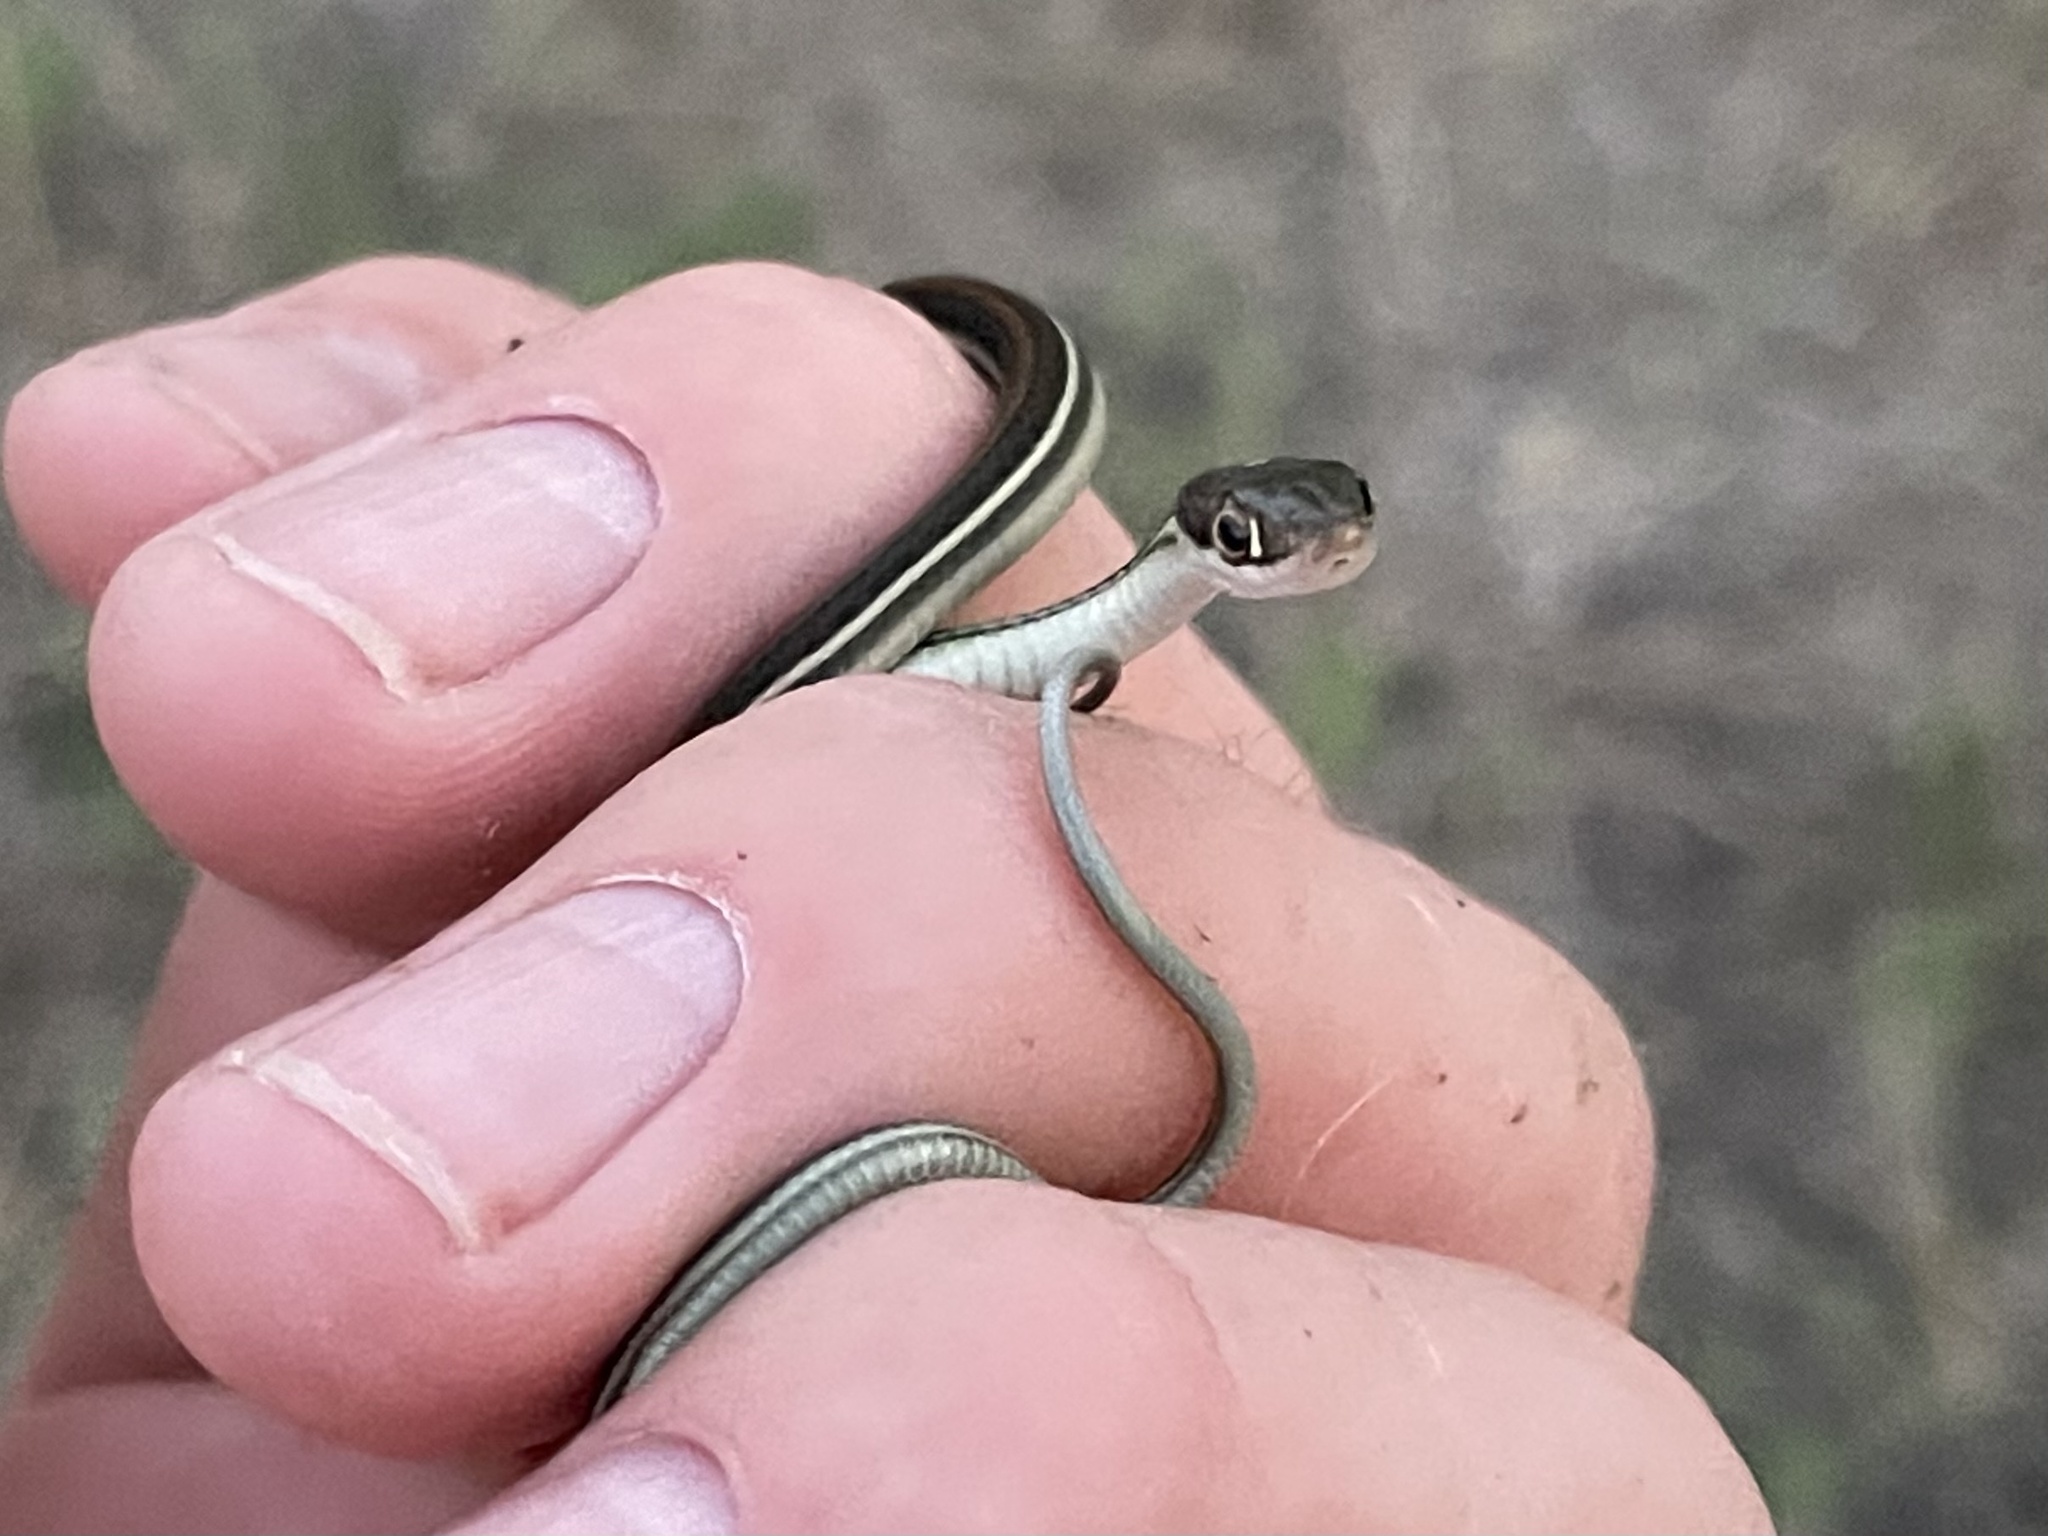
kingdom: Animalia
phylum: Chordata
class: Squamata
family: Colubridae
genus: Thamnophis
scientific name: Thamnophis proximus
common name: Western ribbon snake
